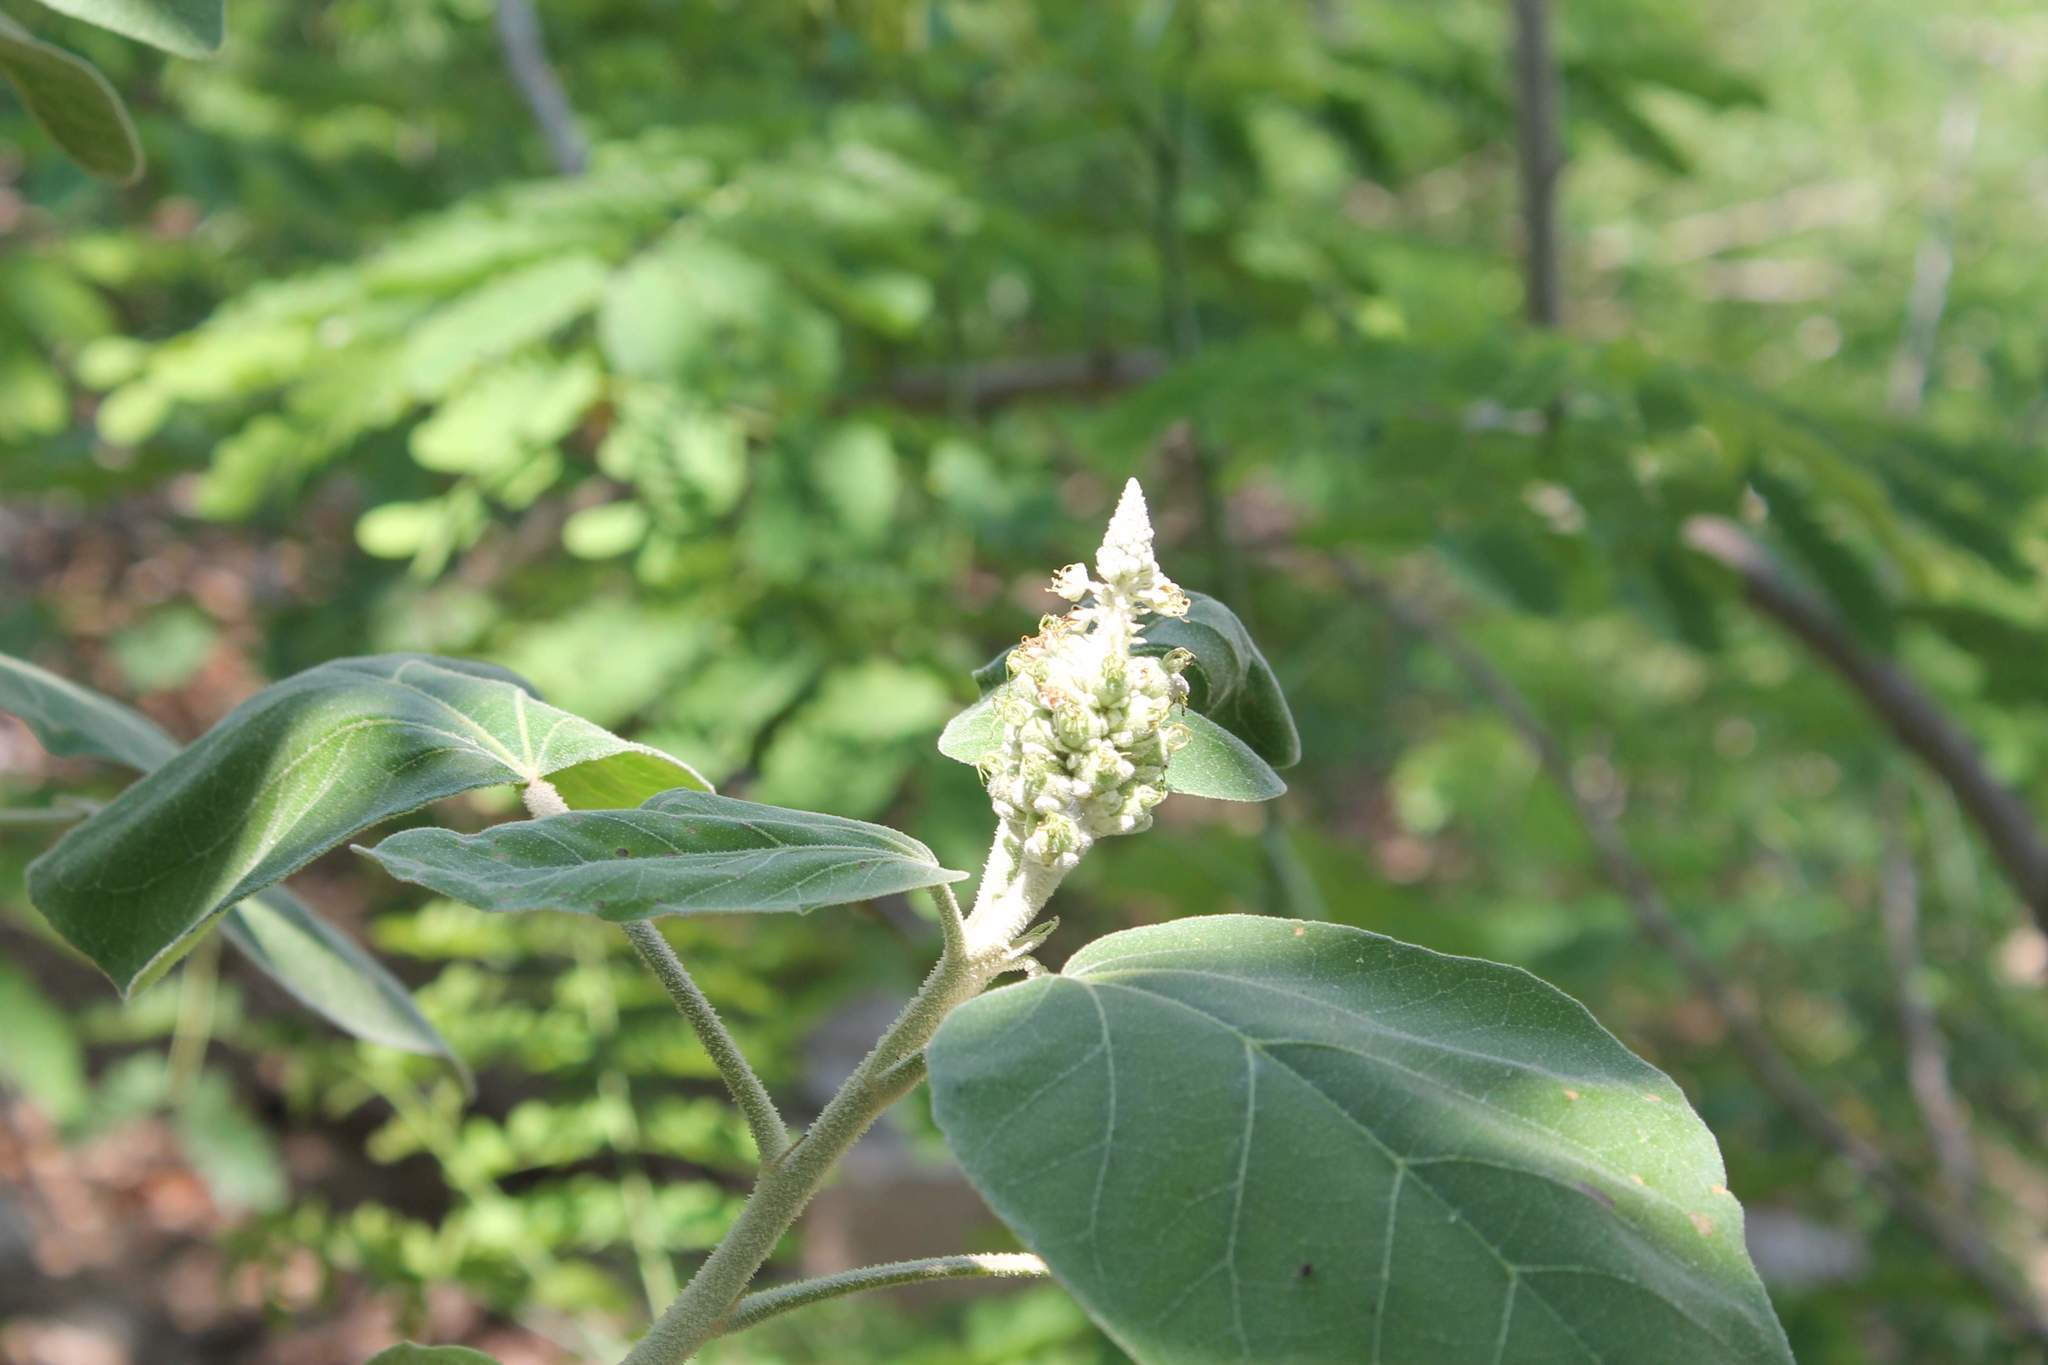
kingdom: Plantae
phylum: Tracheophyta
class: Magnoliopsida
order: Malpighiales
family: Euphorbiaceae
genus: Croton
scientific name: Croton suberosus
